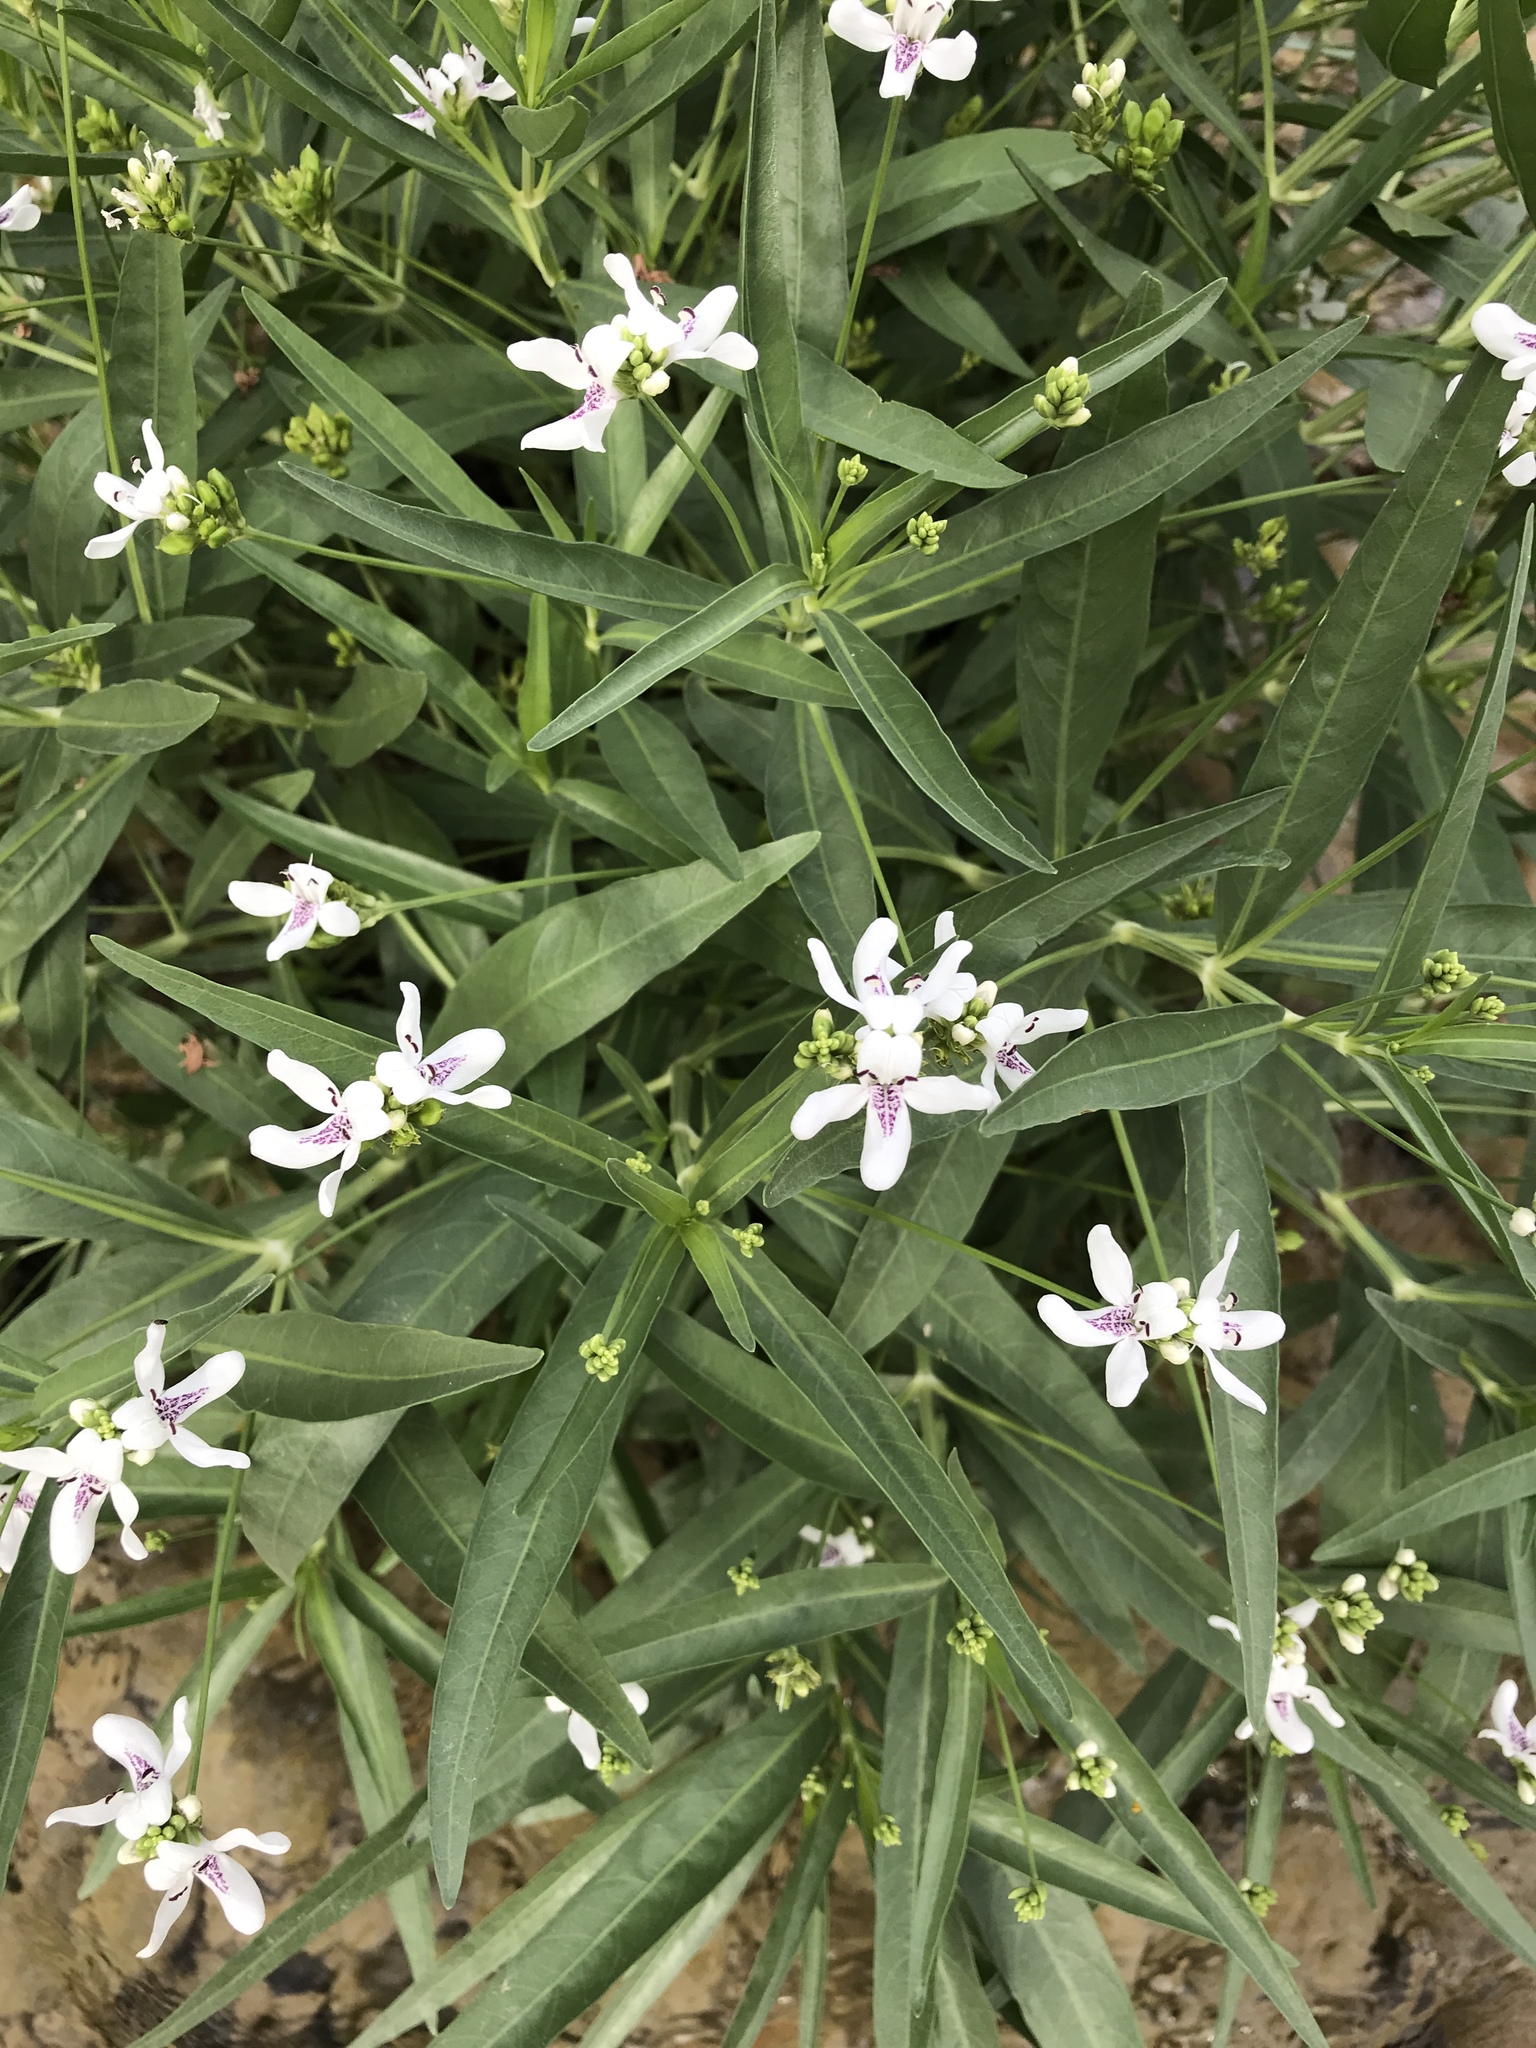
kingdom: Plantae
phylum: Tracheophyta
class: Magnoliopsida
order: Lamiales
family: Acanthaceae
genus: Dianthera
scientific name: Dianthera americana
